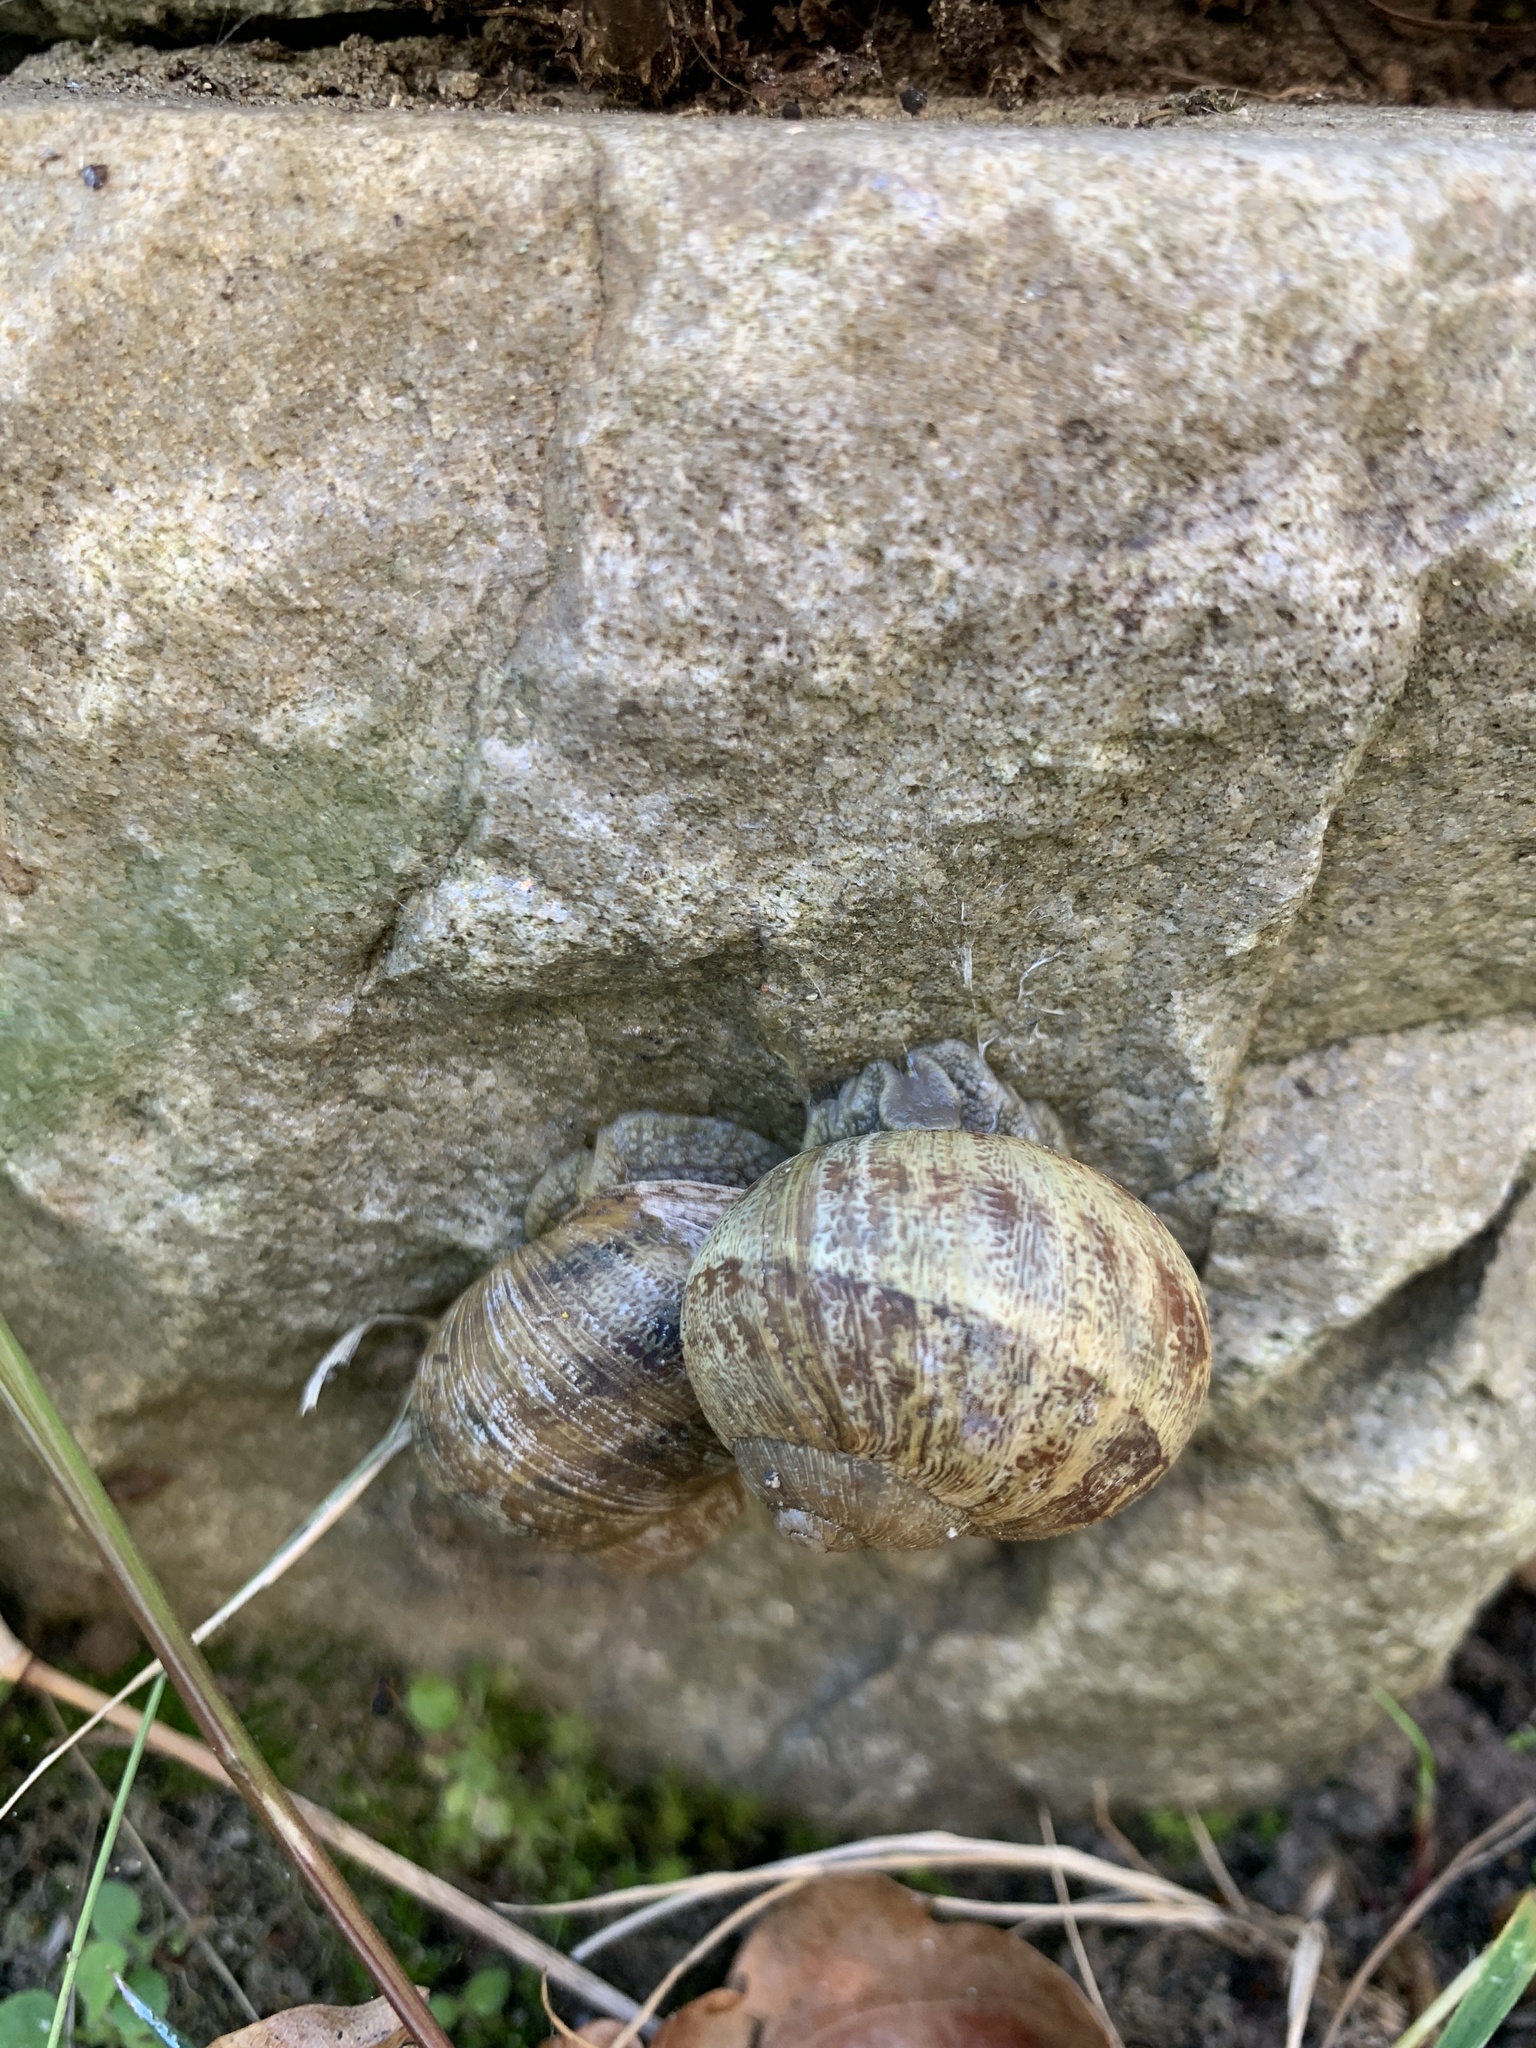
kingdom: Animalia
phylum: Mollusca
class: Gastropoda
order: Stylommatophora
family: Helicidae
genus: Cornu
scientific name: Cornu aspersum
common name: Brown garden snail
